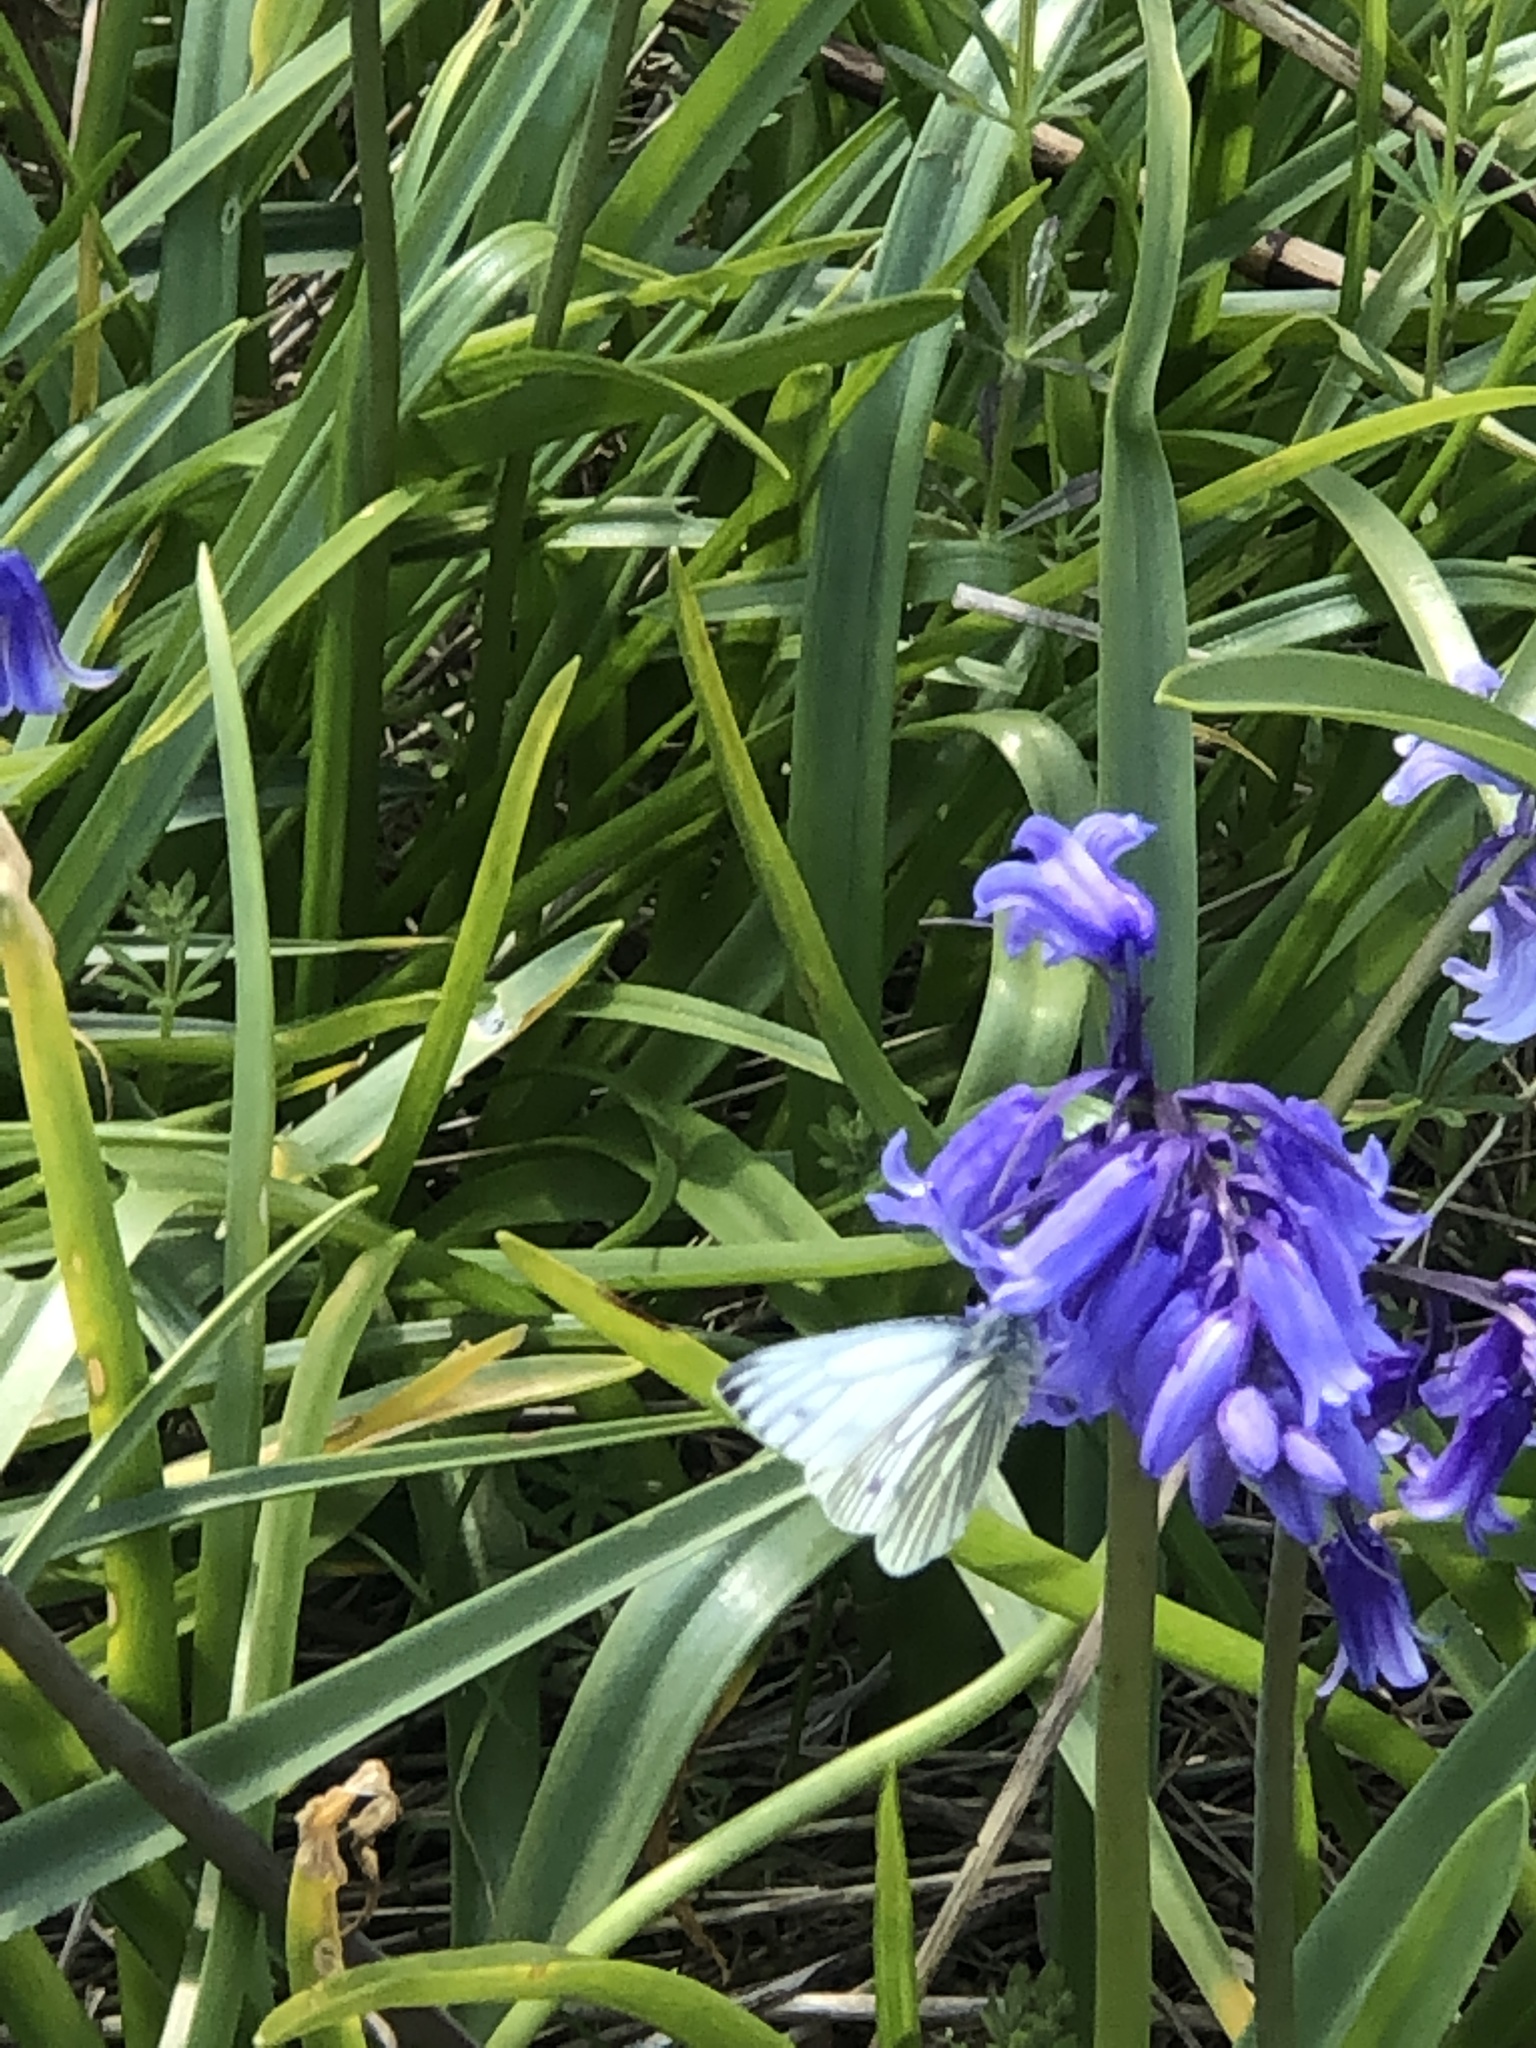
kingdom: Animalia
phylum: Arthropoda
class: Insecta
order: Lepidoptera
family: Pieridae
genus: Pieris
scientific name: Pieris napi
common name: Green-veined white
